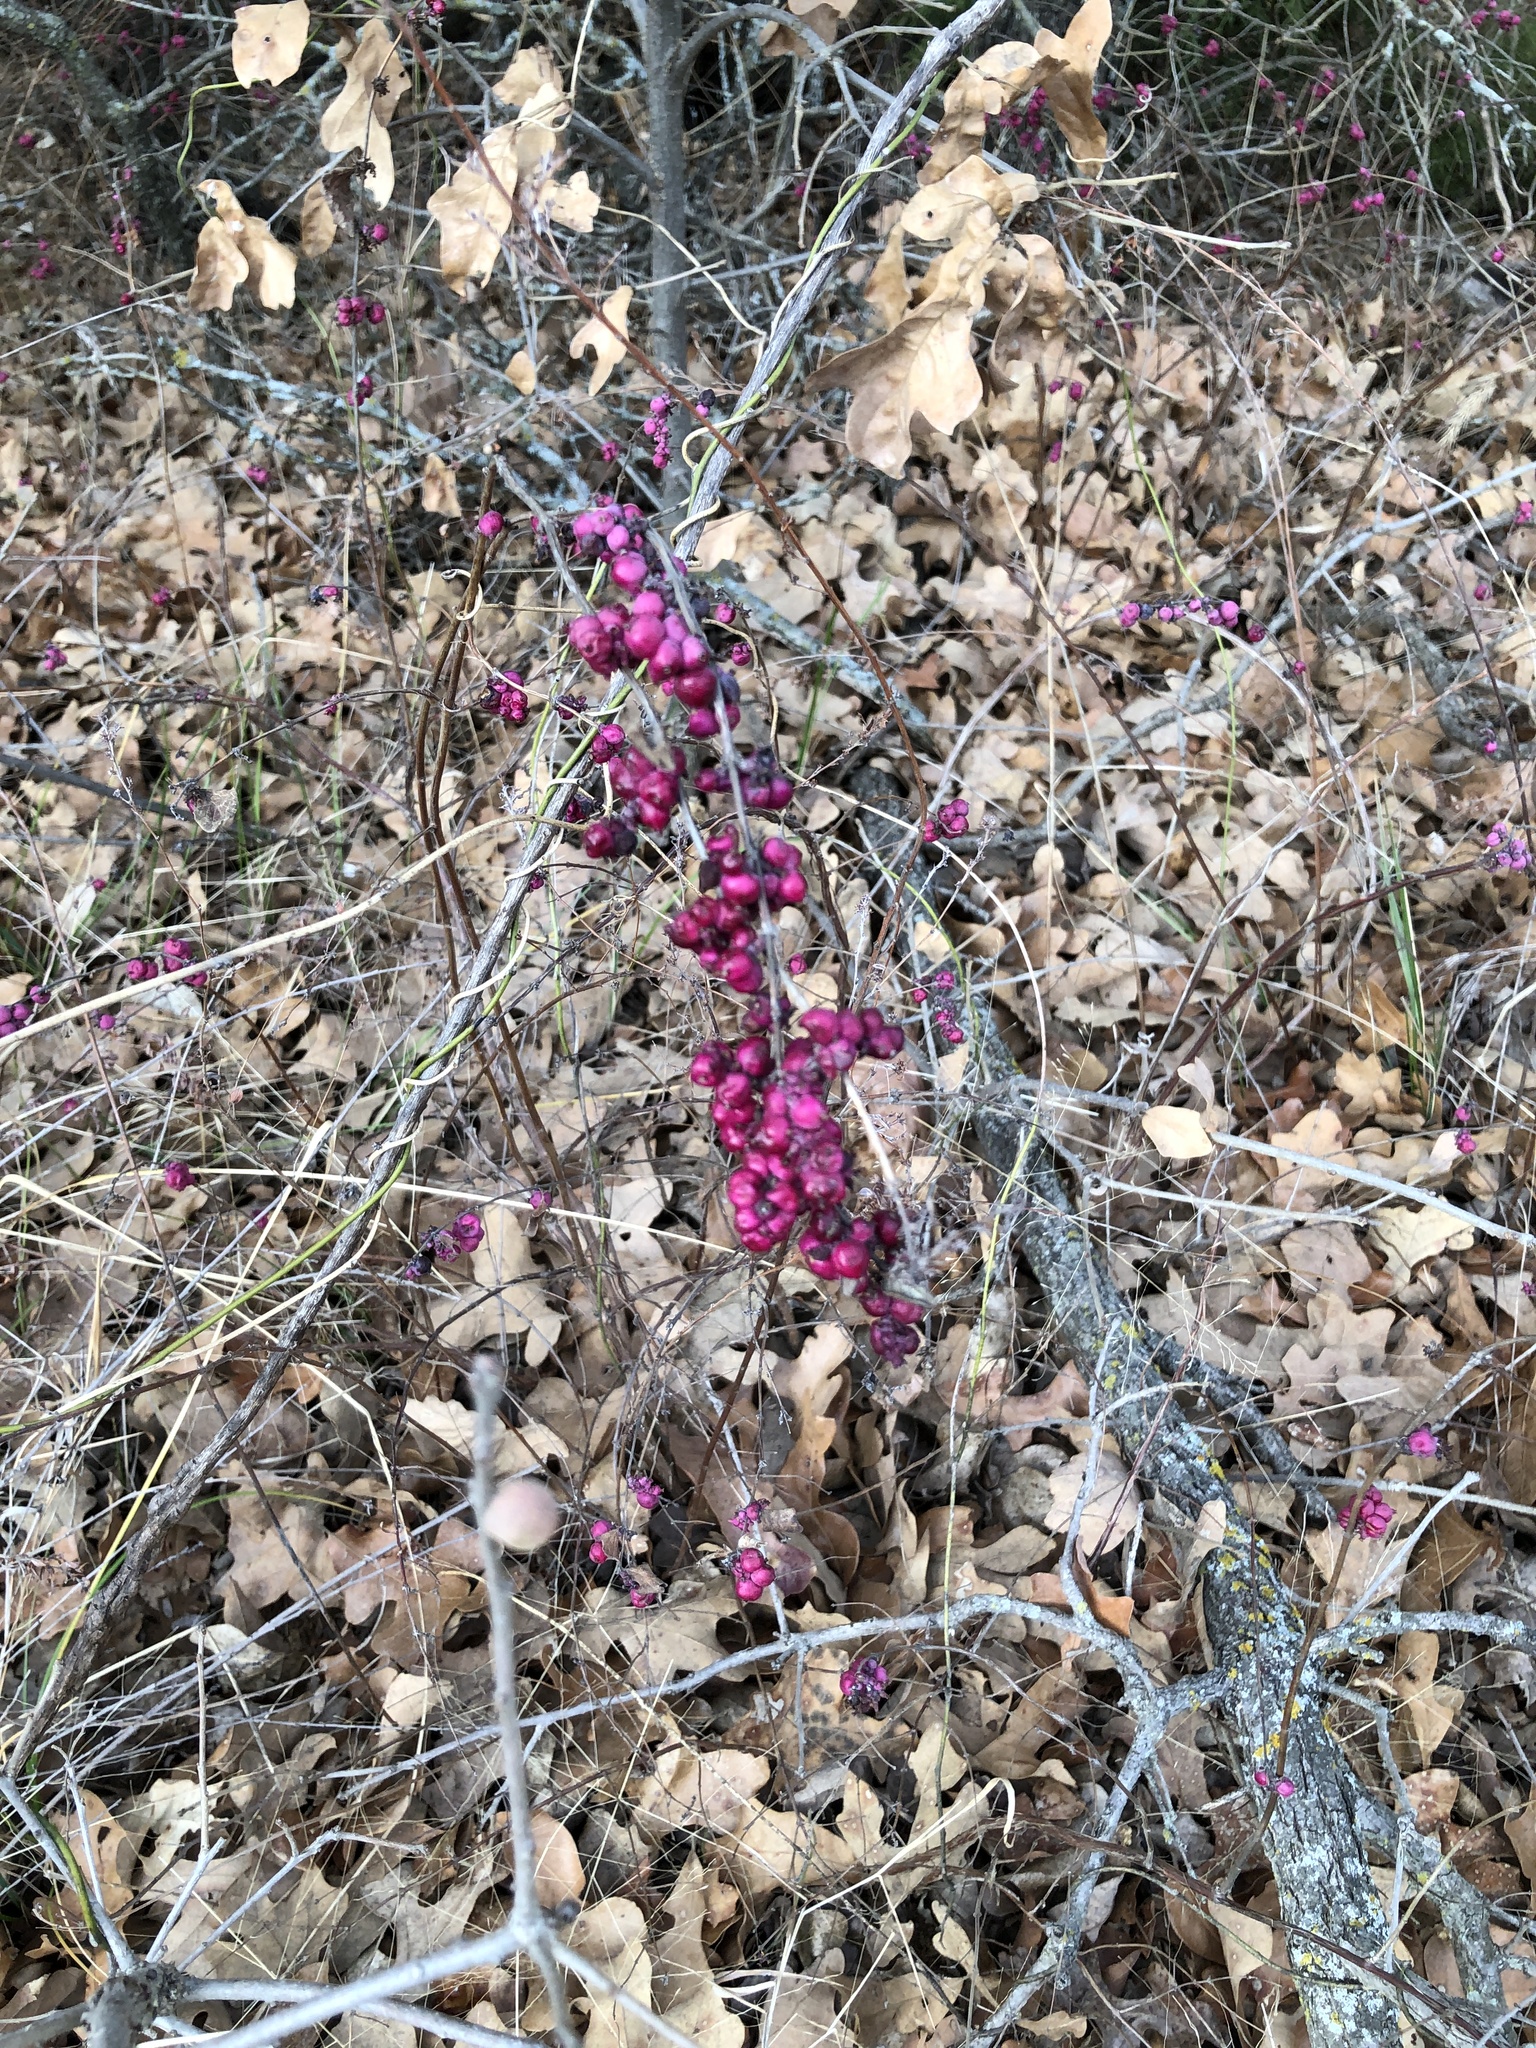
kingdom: Plantae
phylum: Tracheophyta
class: Magnoliopsida
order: Dipsacales
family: Caprifoliaceae
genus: Symphoricarpos
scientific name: Symphoricarpos orbiculatus
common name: Coralberry
